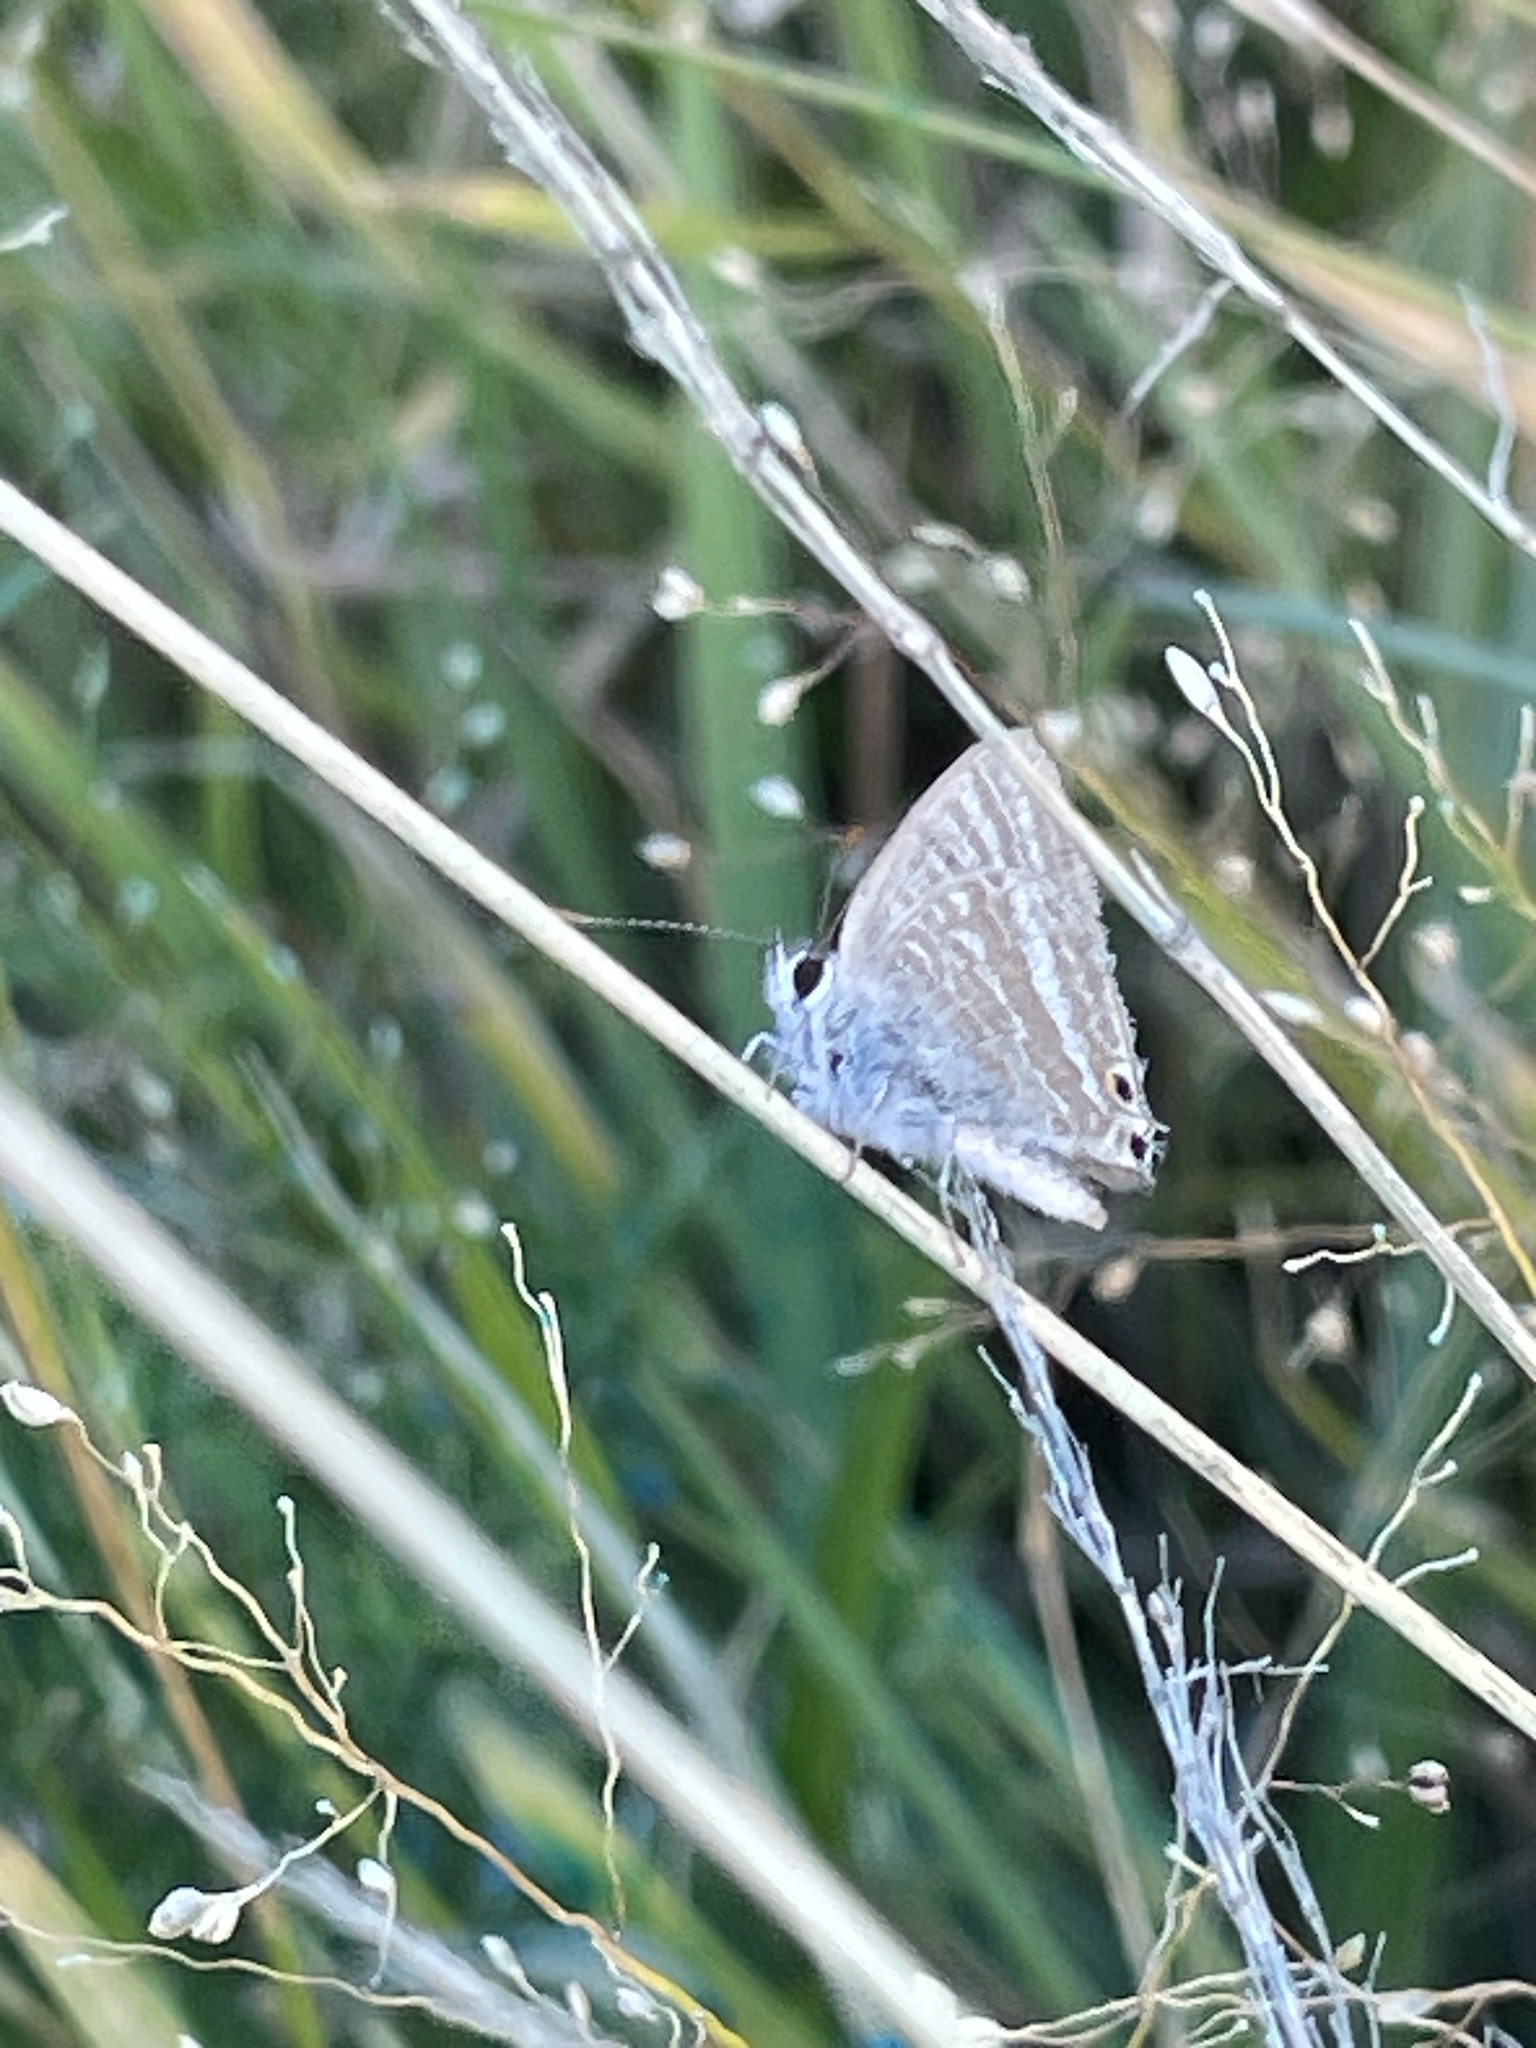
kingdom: Animalia
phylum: Arthropoda
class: Insecta
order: Lepidoptera
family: Lycaenidae
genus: Lampides
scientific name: Lampides boeticus
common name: Long-tailed blue
